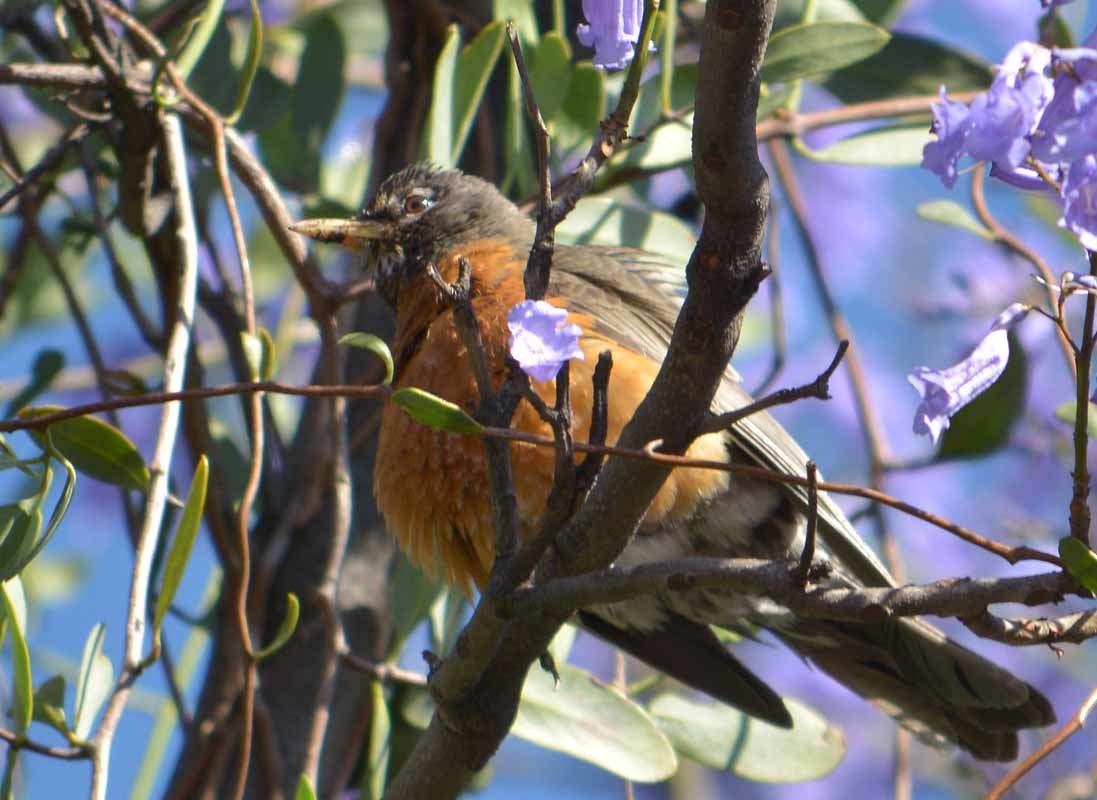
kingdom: Animalia
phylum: Chordata
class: Aves
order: Passeriformes
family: Turdidae
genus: Turdus
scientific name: Turdus migratorius
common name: American robin
